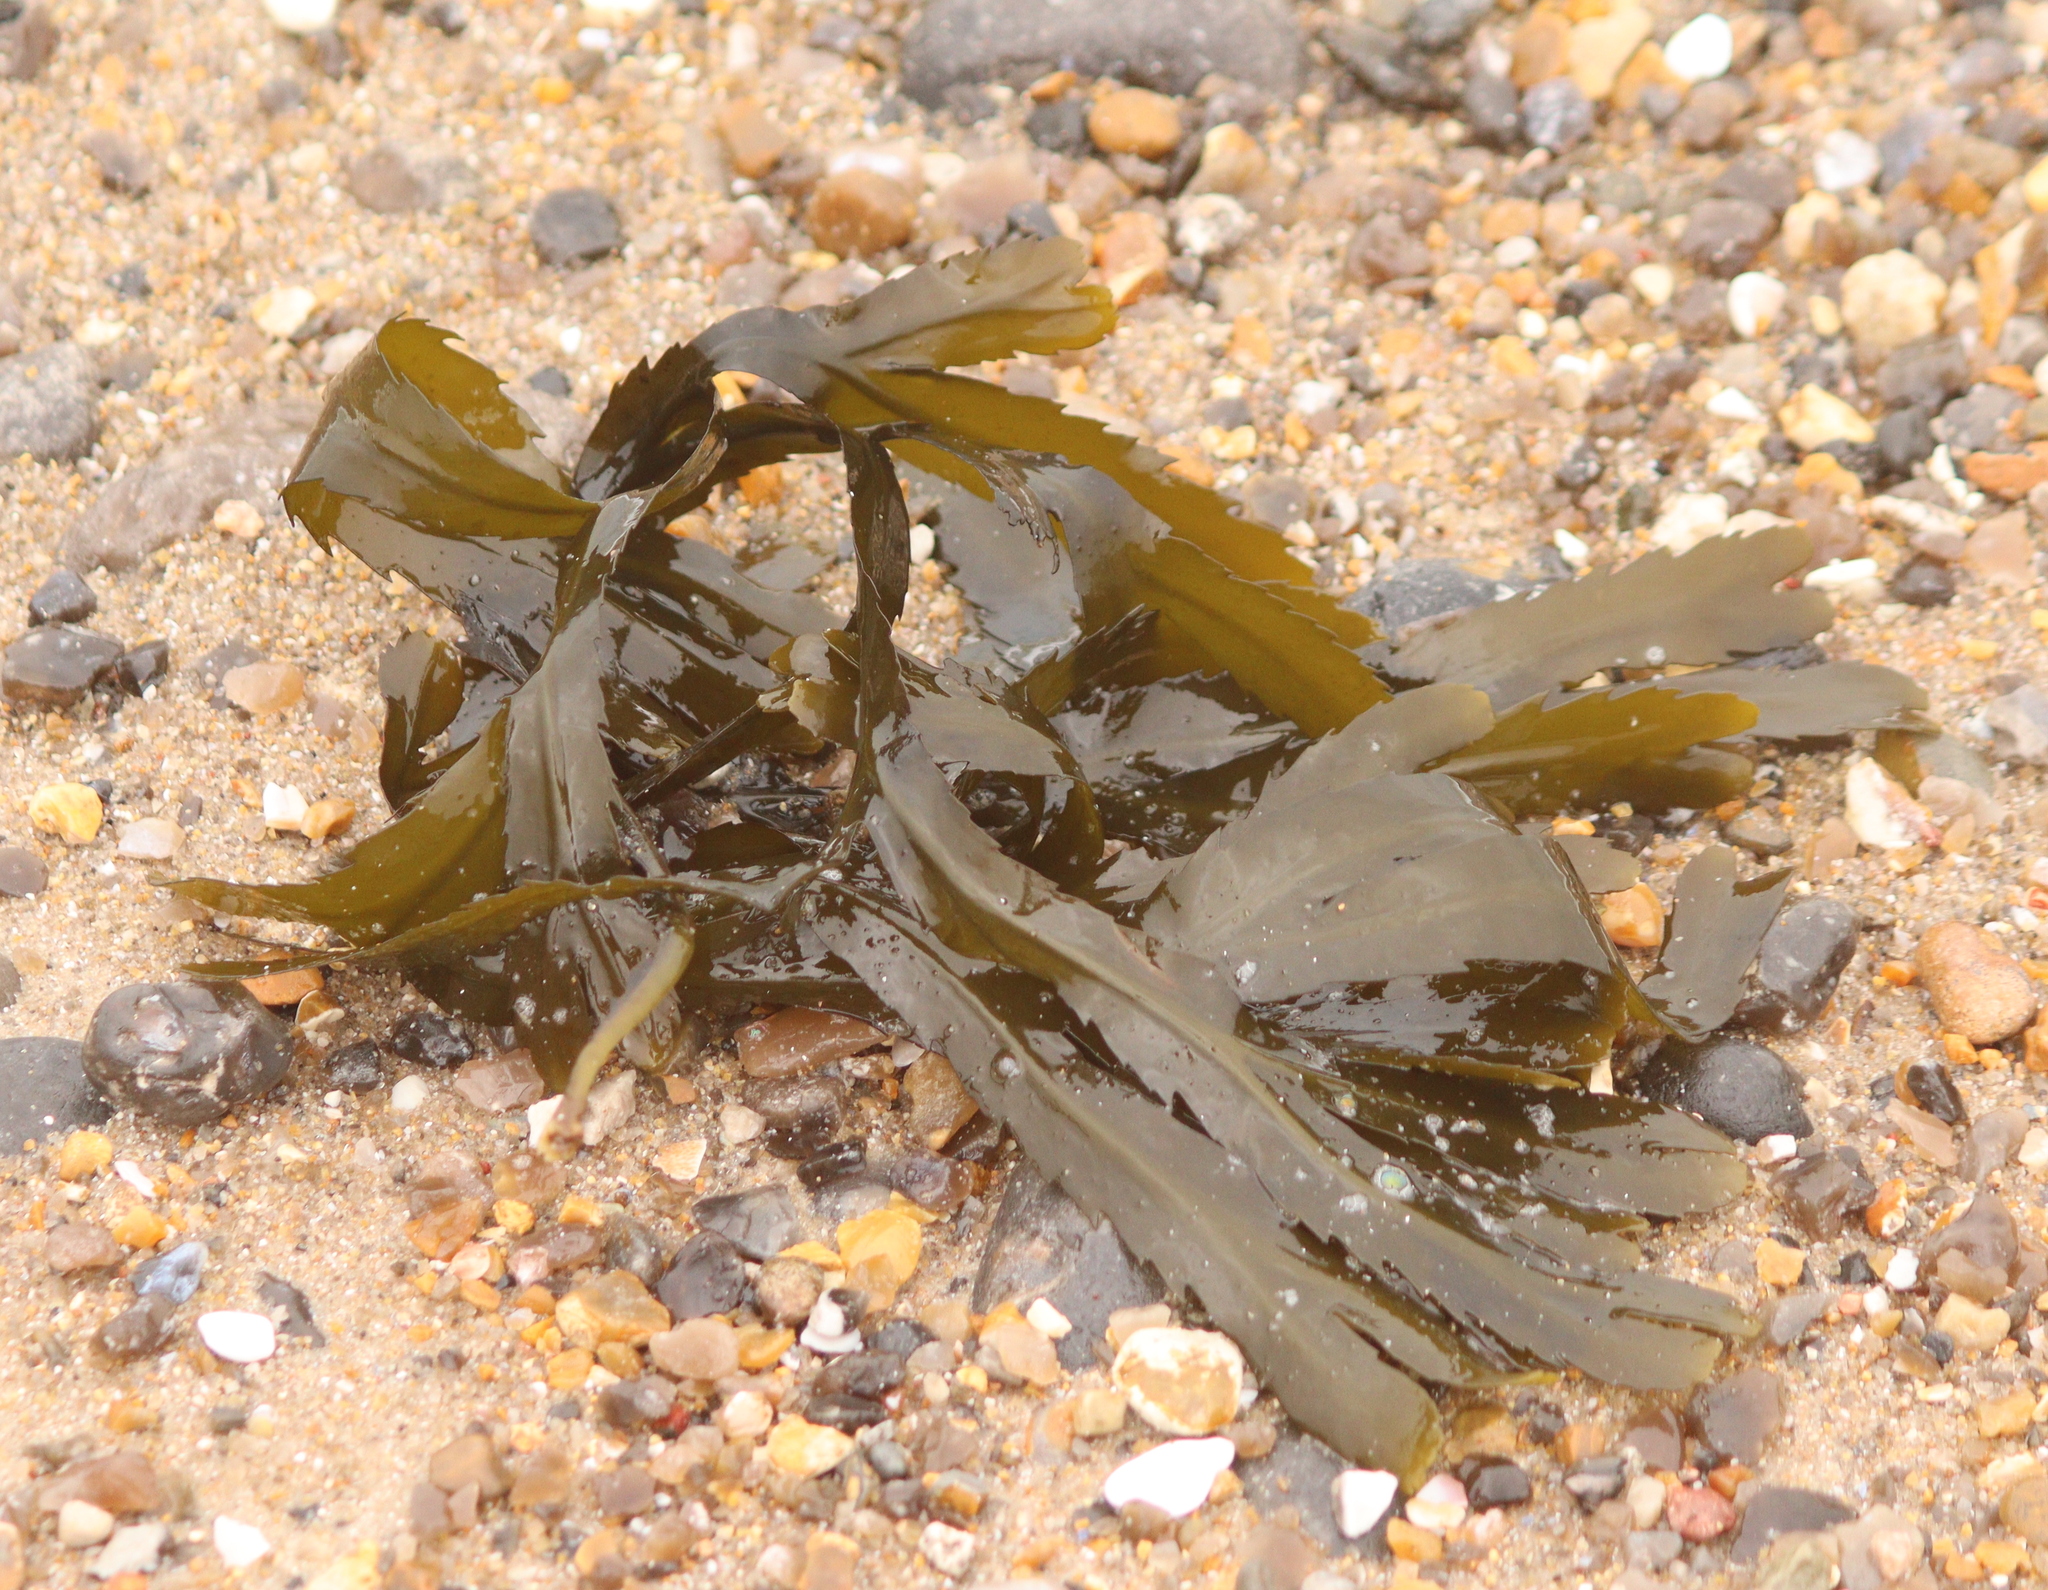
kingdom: Chromista
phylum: Ochrophyta
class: Phaeophyceae
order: Fucales
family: Fucaceae
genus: Fucus
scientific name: Fucus serratus
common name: Toothed wrack
